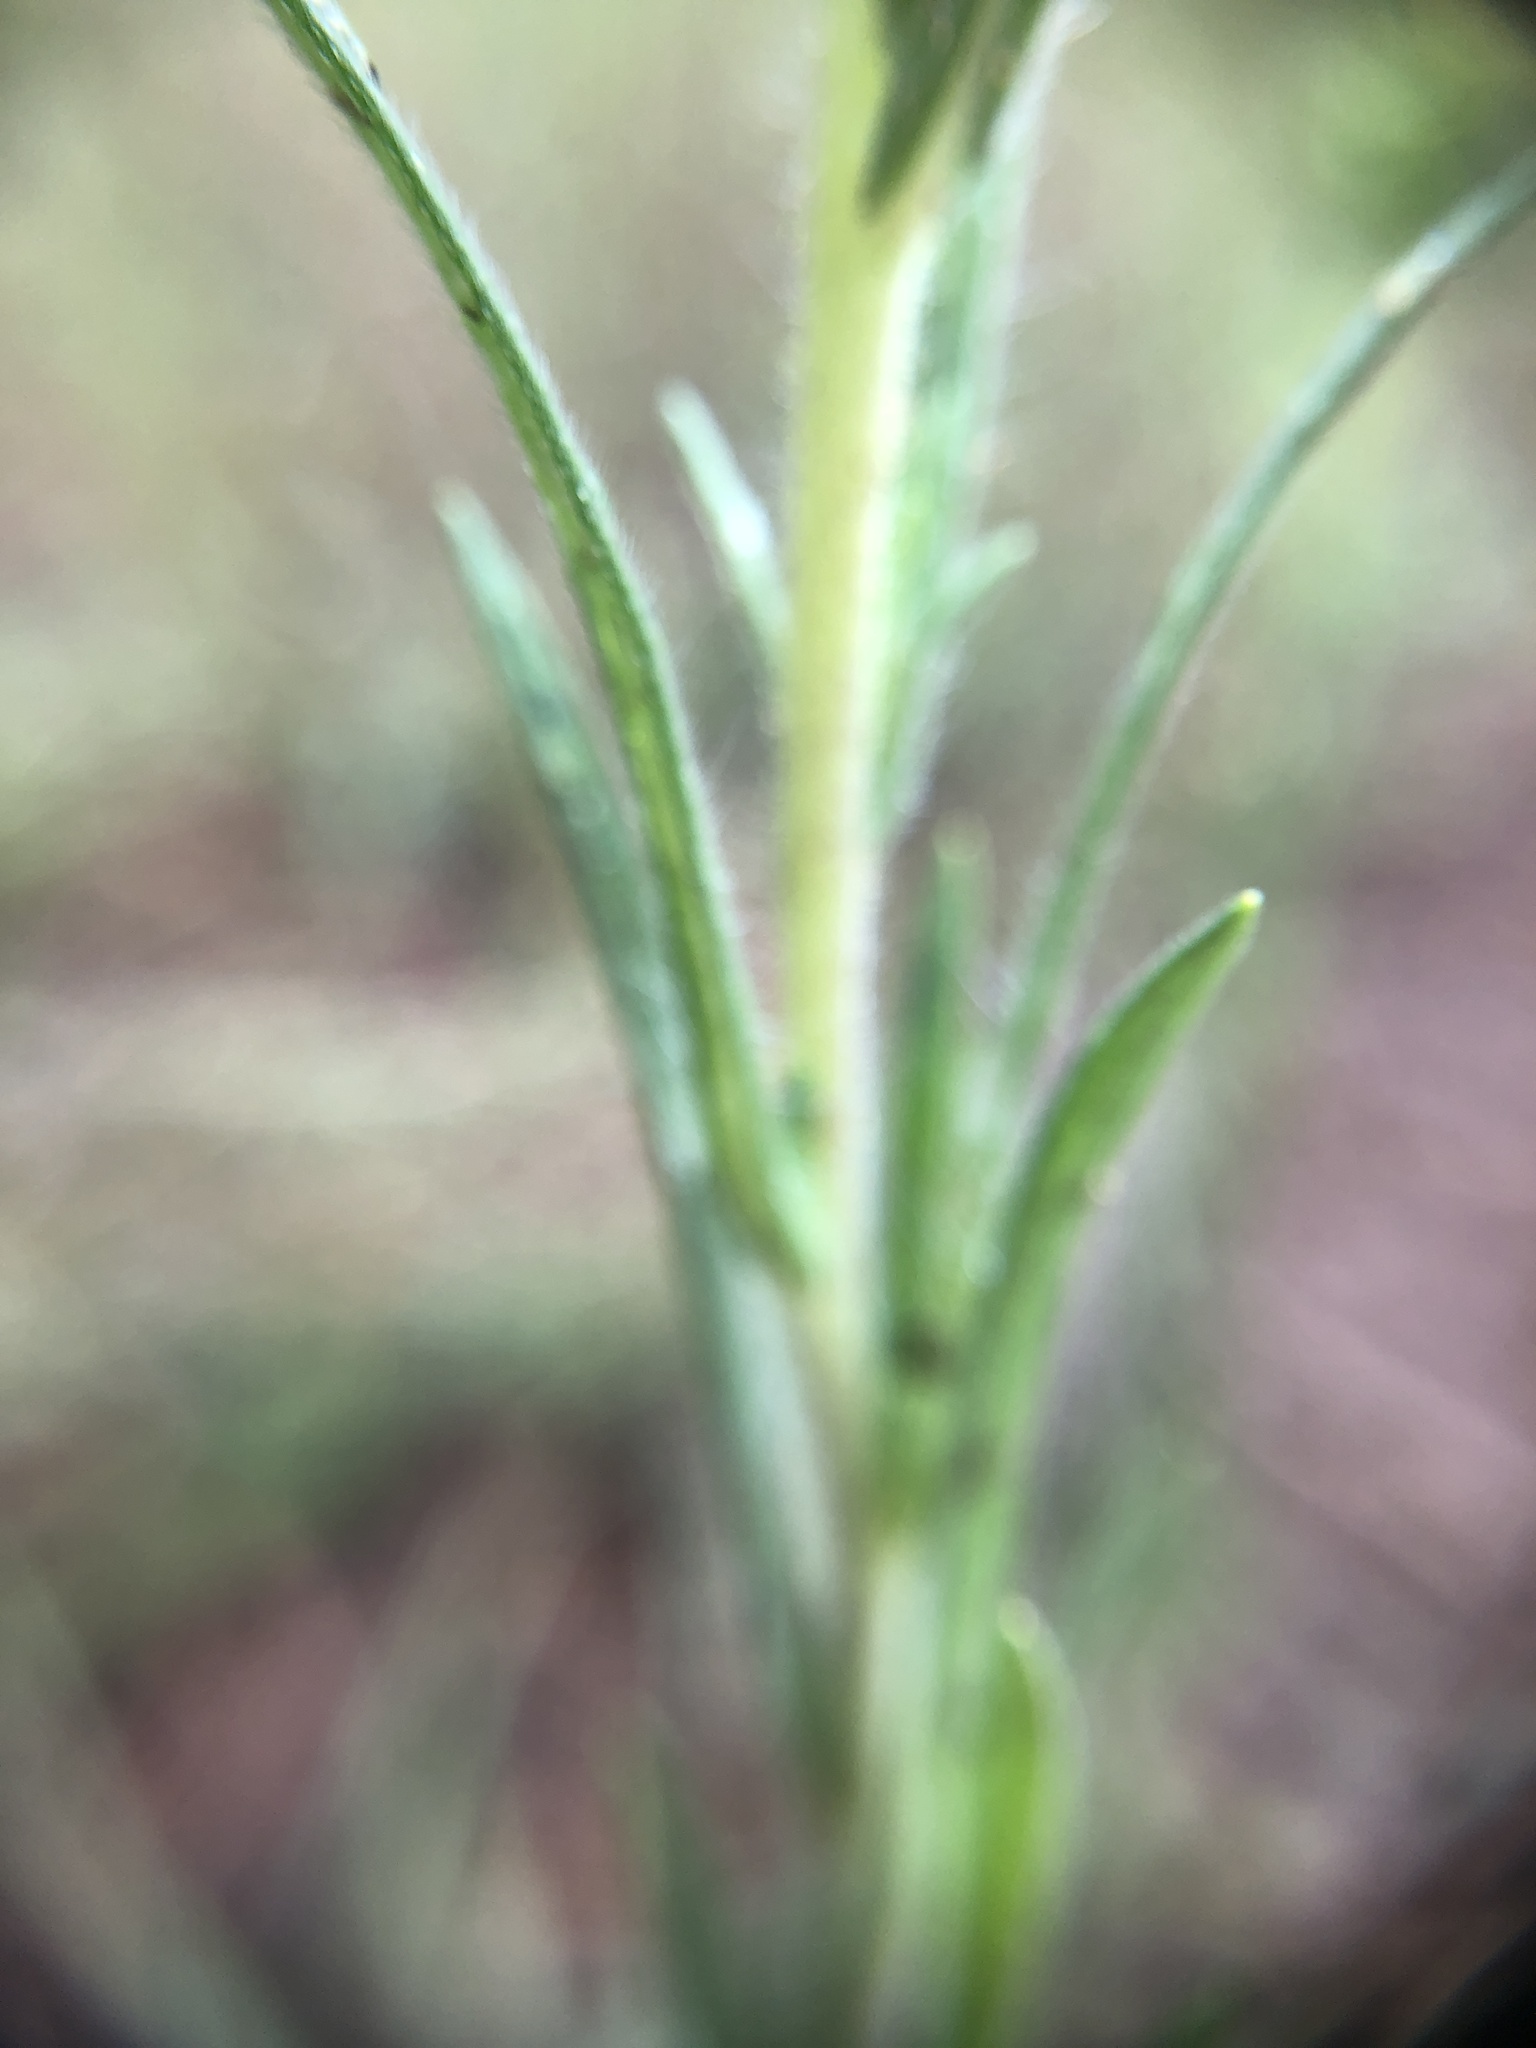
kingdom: Plantae
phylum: Tracheophyta
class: Magnoliopsida
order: Asterales
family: Asteraceae
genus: Madia
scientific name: Madia glomerata
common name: Mountain tarweed
